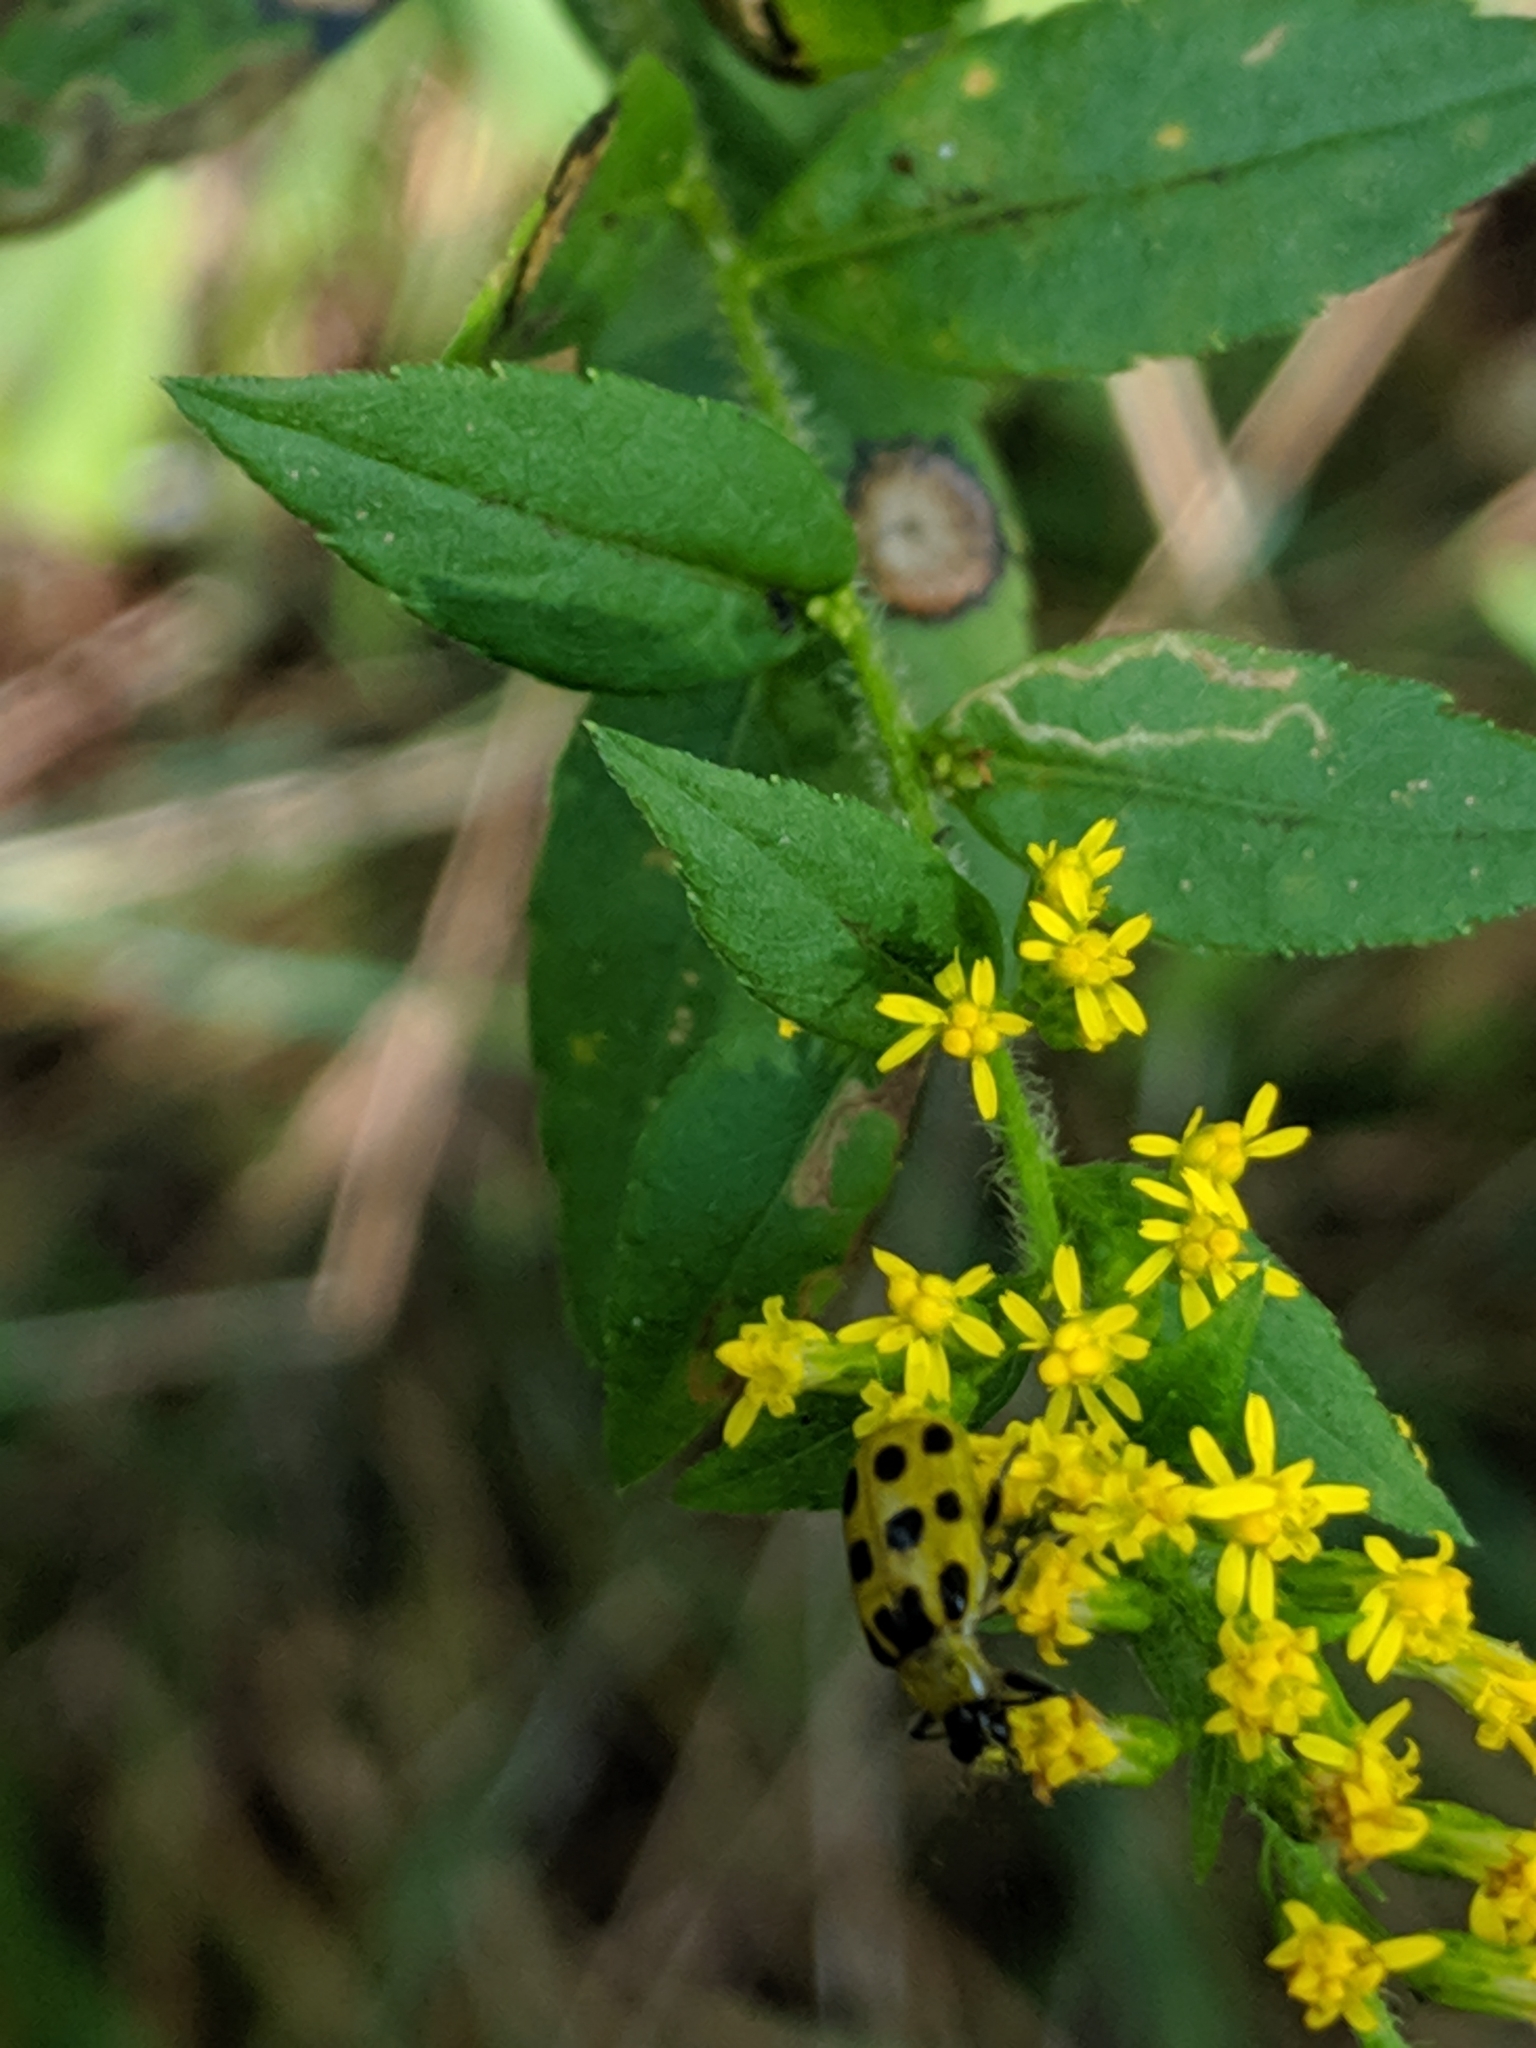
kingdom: Animalia
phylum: Arthropoda
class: Insecta
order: Coleoptera
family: Chrysomelidae
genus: Diabrotica
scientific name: Diabrotica undecimpunctata
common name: Spotted cucumber beetle
